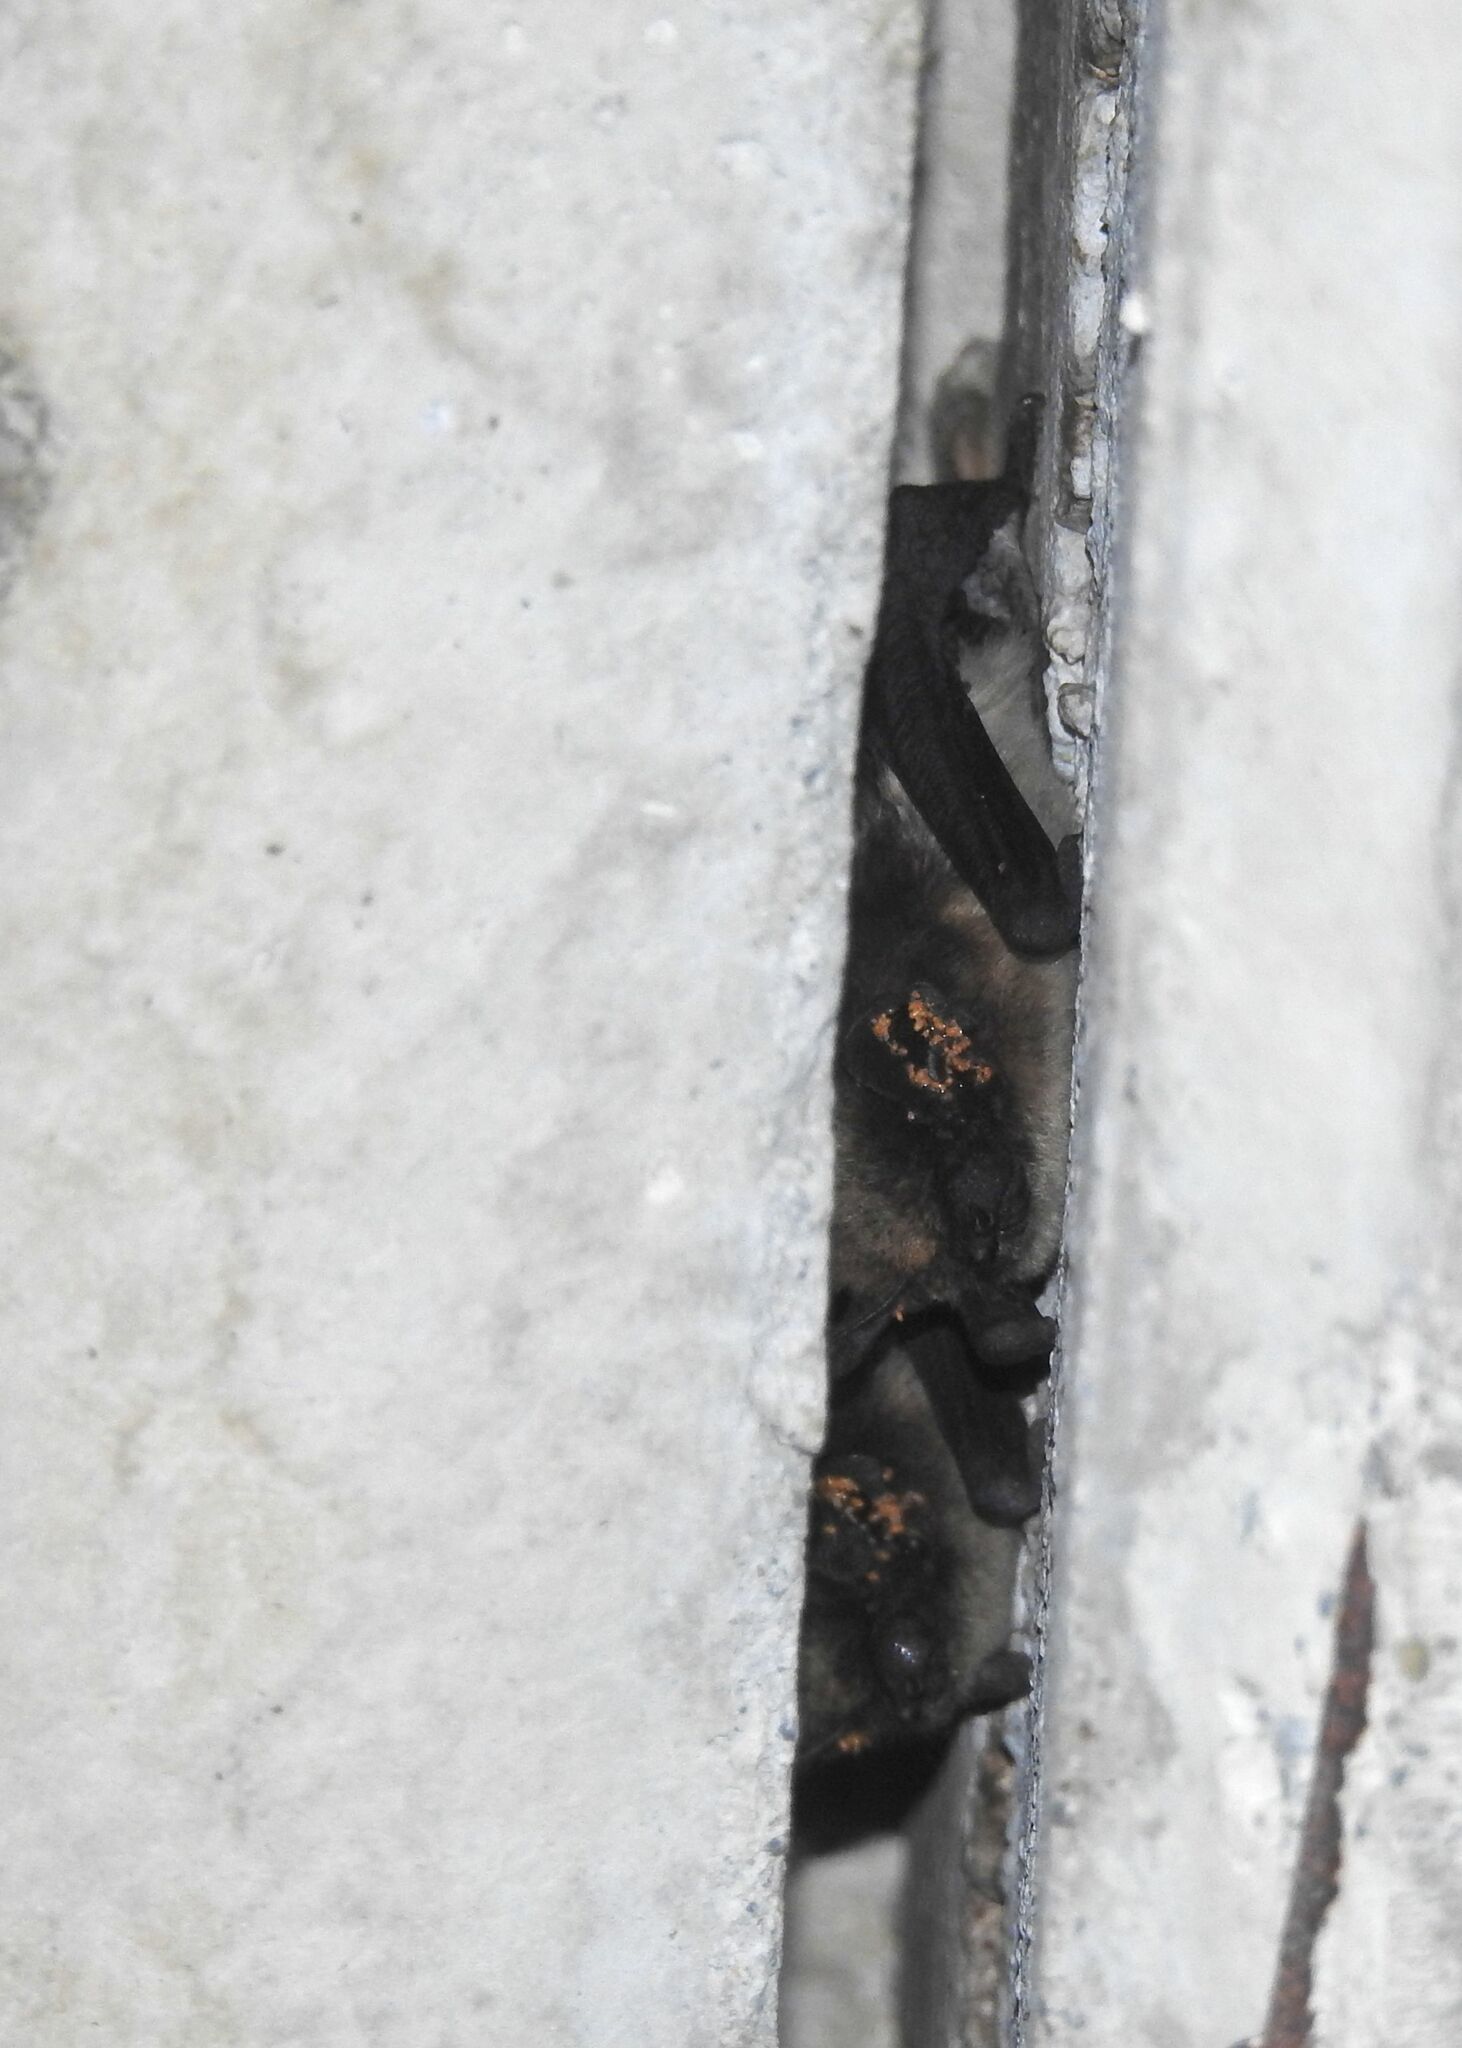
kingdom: Animalia
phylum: Chordata
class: Mammalia
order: Chiroptera
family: Vespertilionidae
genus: Hypsugo
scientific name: Hypsugo savii
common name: Savi's pipistrelle
